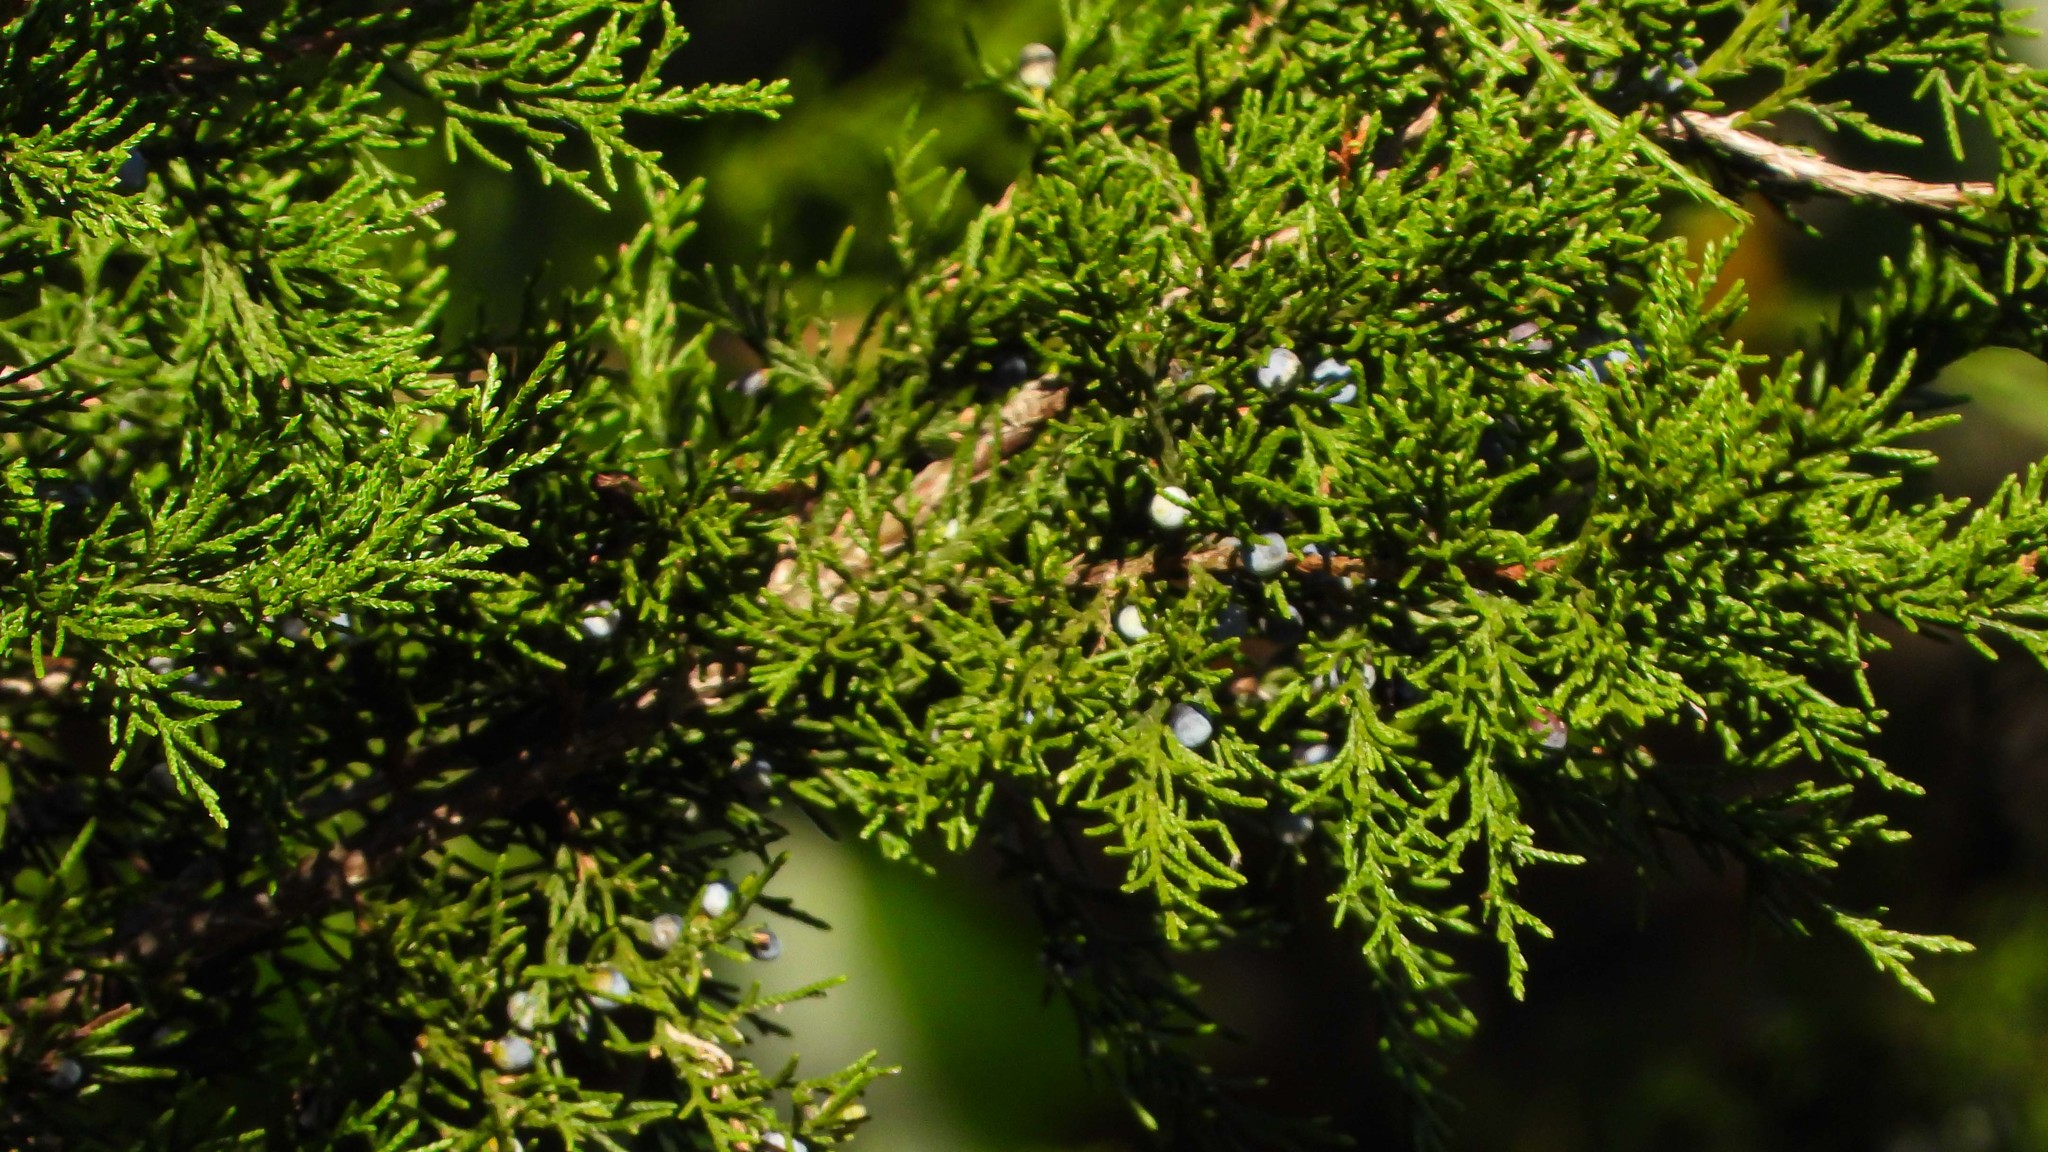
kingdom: Plantae
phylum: Tracheophyta
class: Pinopsida
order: Pinales
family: Cupressaceae
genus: Juniperus
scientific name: Juniperus virginiana
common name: Red juniper
